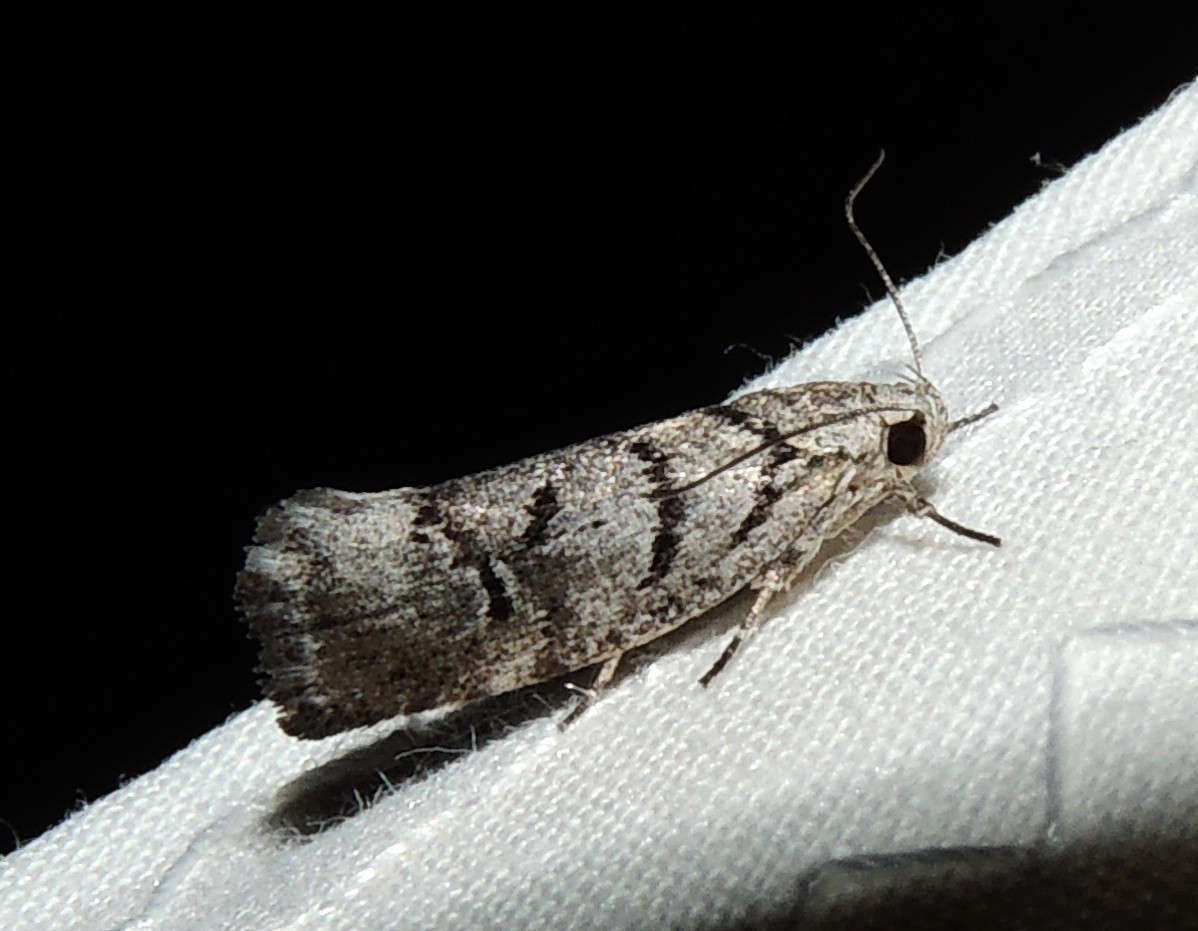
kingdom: Animalia
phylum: Arthropoda
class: Insecta
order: Lepidoptera
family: Xyloryctidae
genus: Lichenaula
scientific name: Lichenaula onychodes
